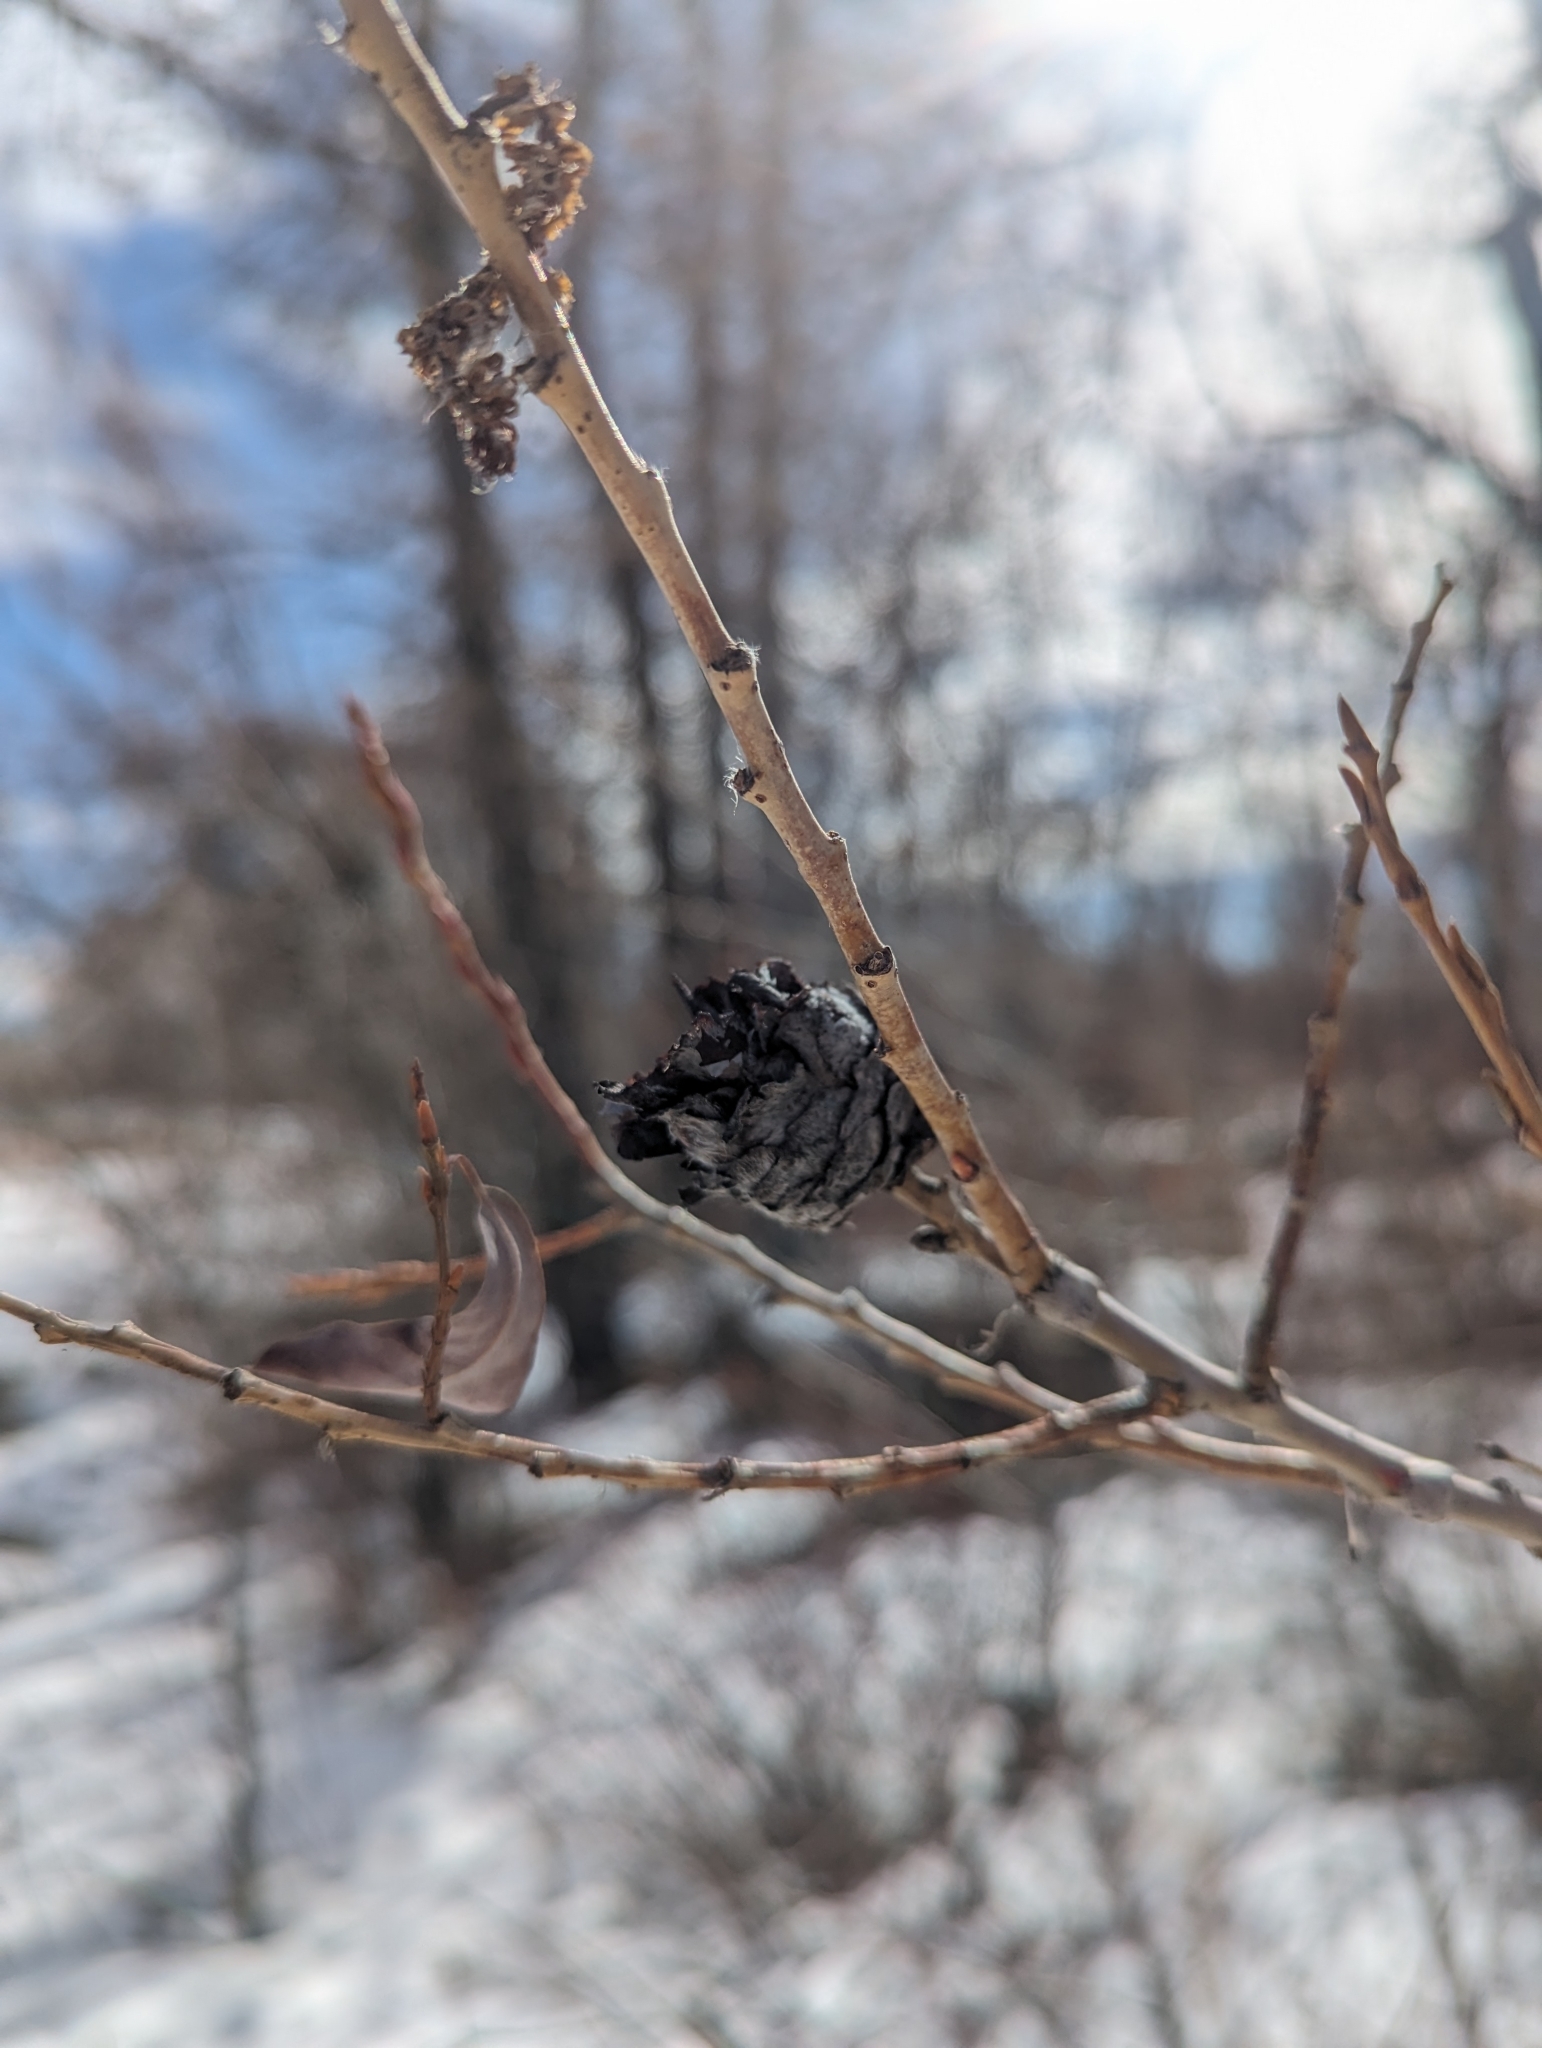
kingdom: Animalia
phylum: Arthropoda
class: Insecta
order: Diptera
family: Cecidomyiidae
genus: Rabdophaga
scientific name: Rabdophaga strobiloides
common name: Willow pinecone gall midge
